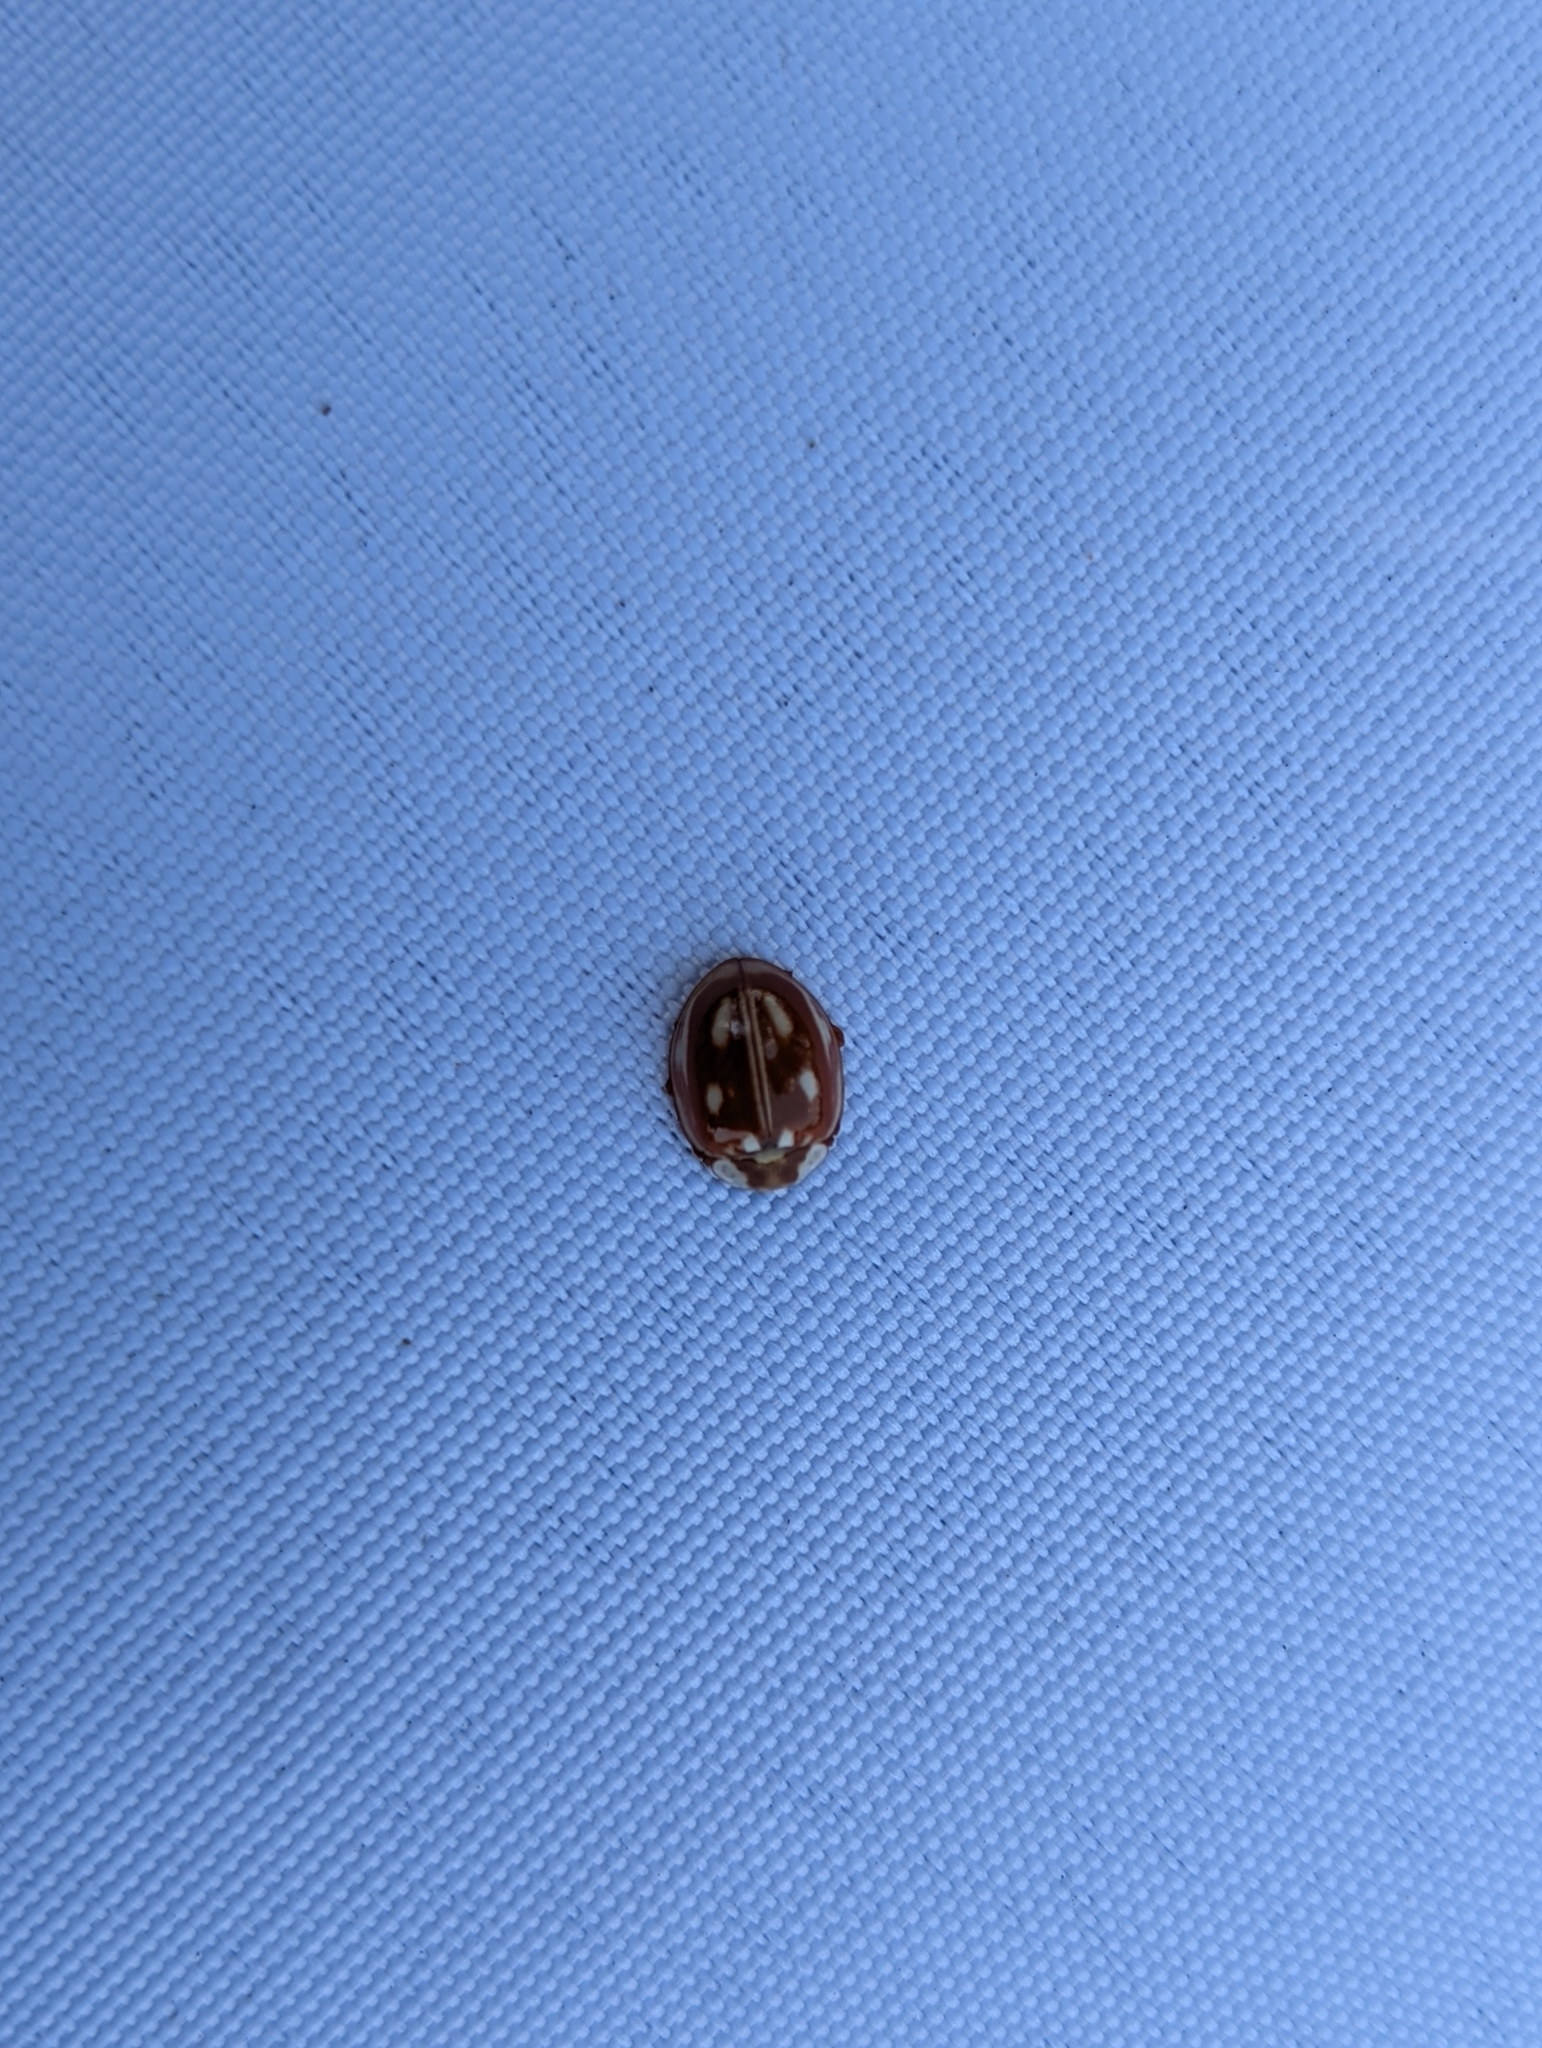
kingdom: Animalia
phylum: Arthropoda
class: Insecta
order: Coleoptera
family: Coccinellidae
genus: Myzia
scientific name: Myzia oblongoguttata
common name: Striped ladybird
